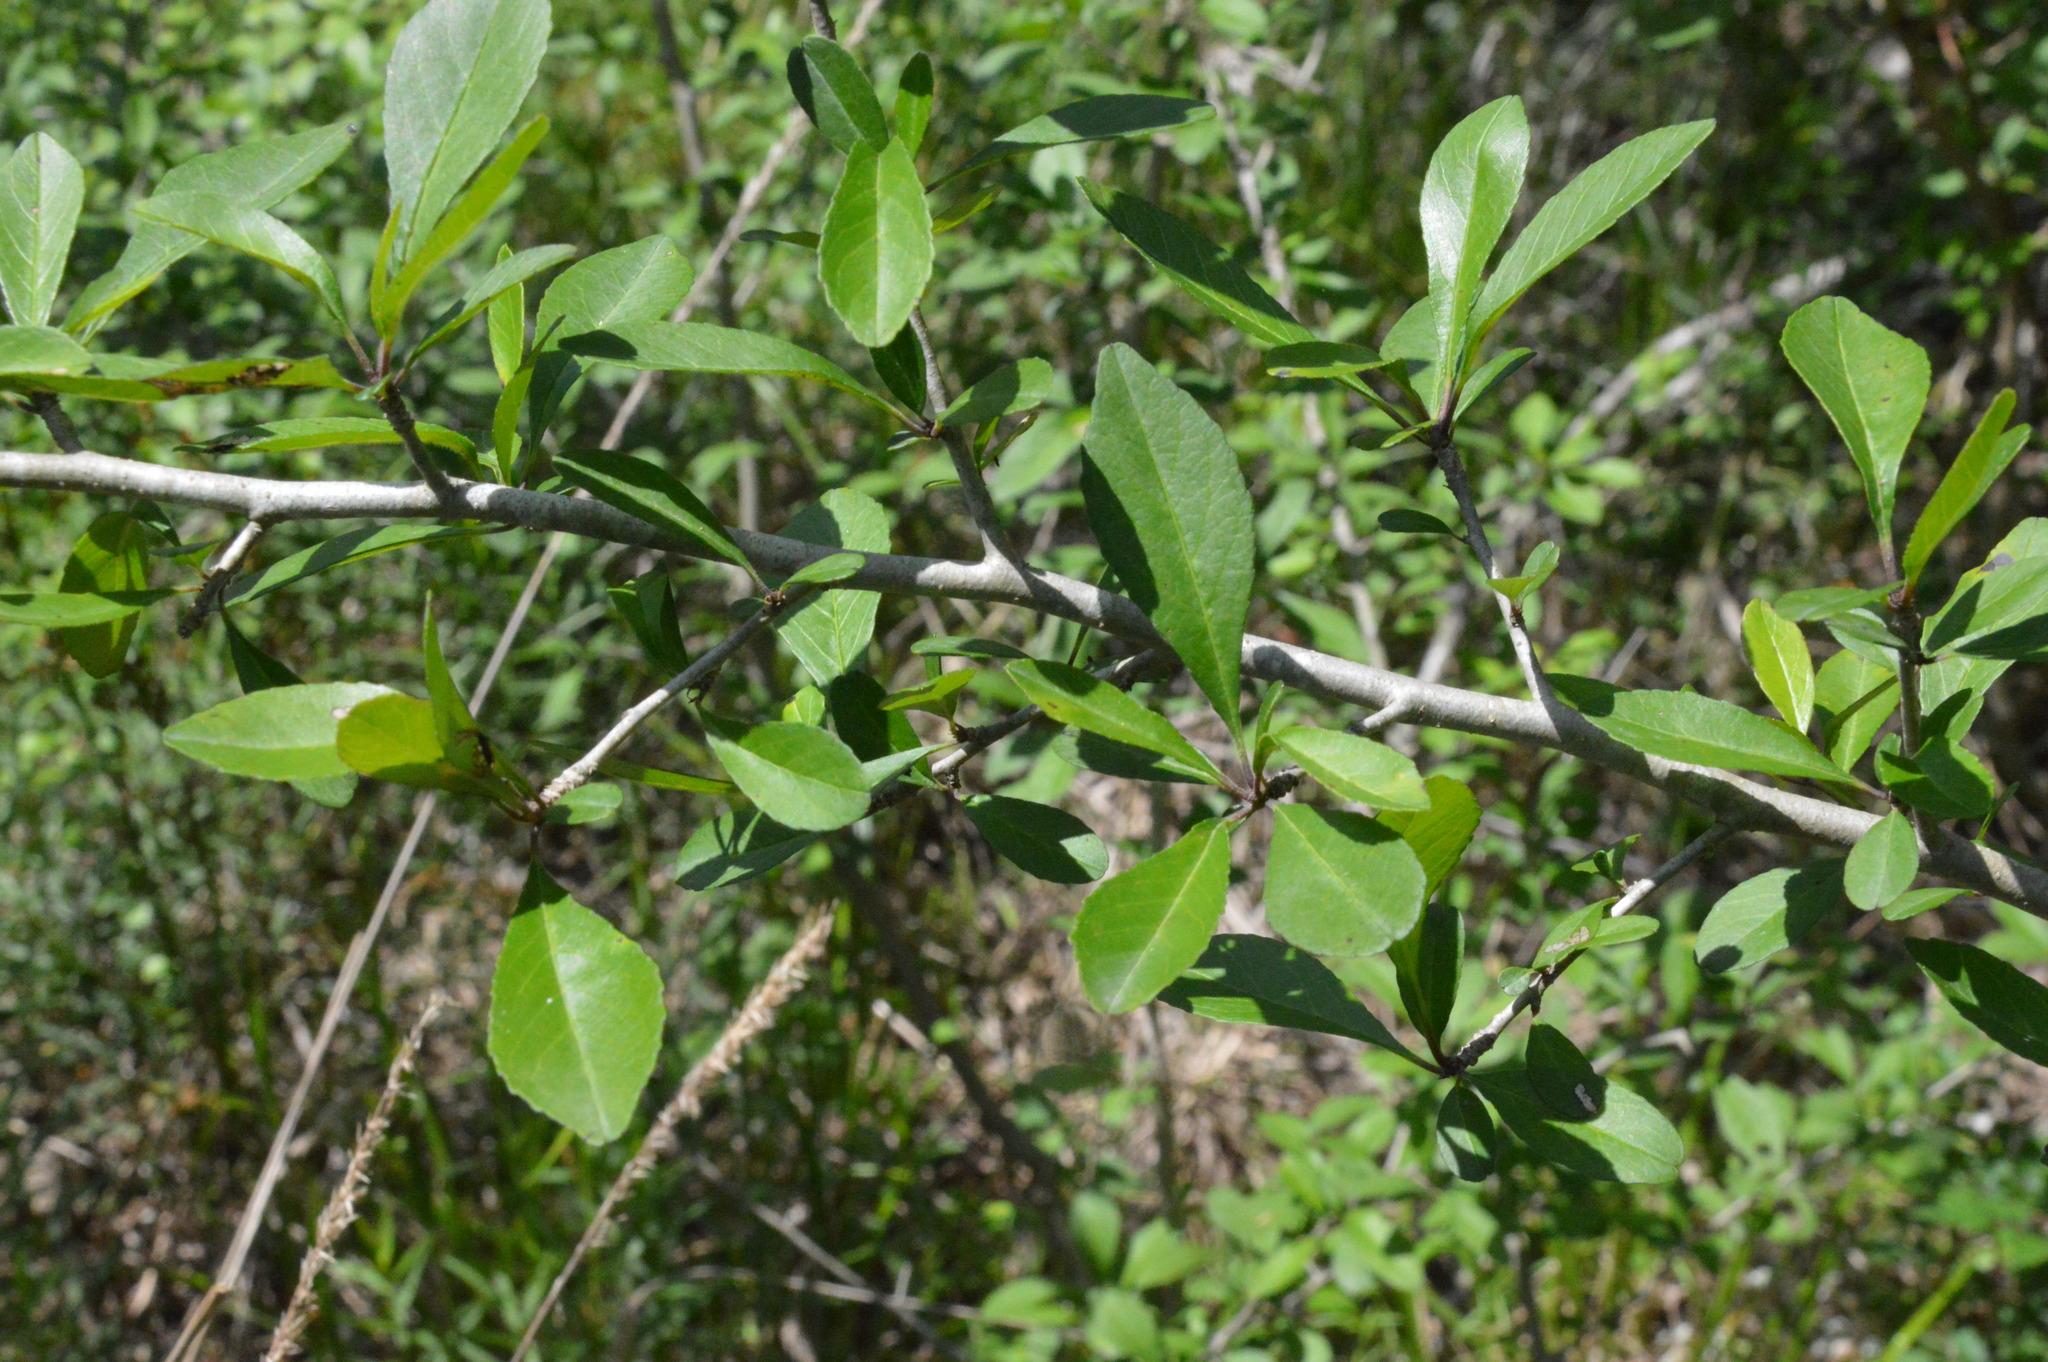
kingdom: Plantae
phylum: Tracheophyta
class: Magnoliopsida
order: Aquifoliales
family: Aquifoliaceae
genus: Ilex
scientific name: Ilex decidua
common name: Possum-haw
